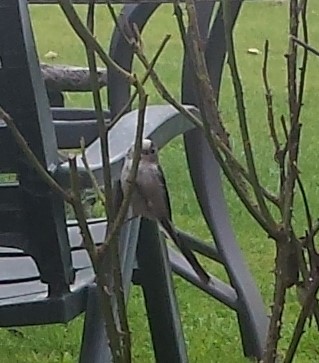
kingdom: Animalia
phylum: Chordata
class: Aves
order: Passeriformes
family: Aegithalidae
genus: Aegithalos
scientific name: Aegithalos caudatus
